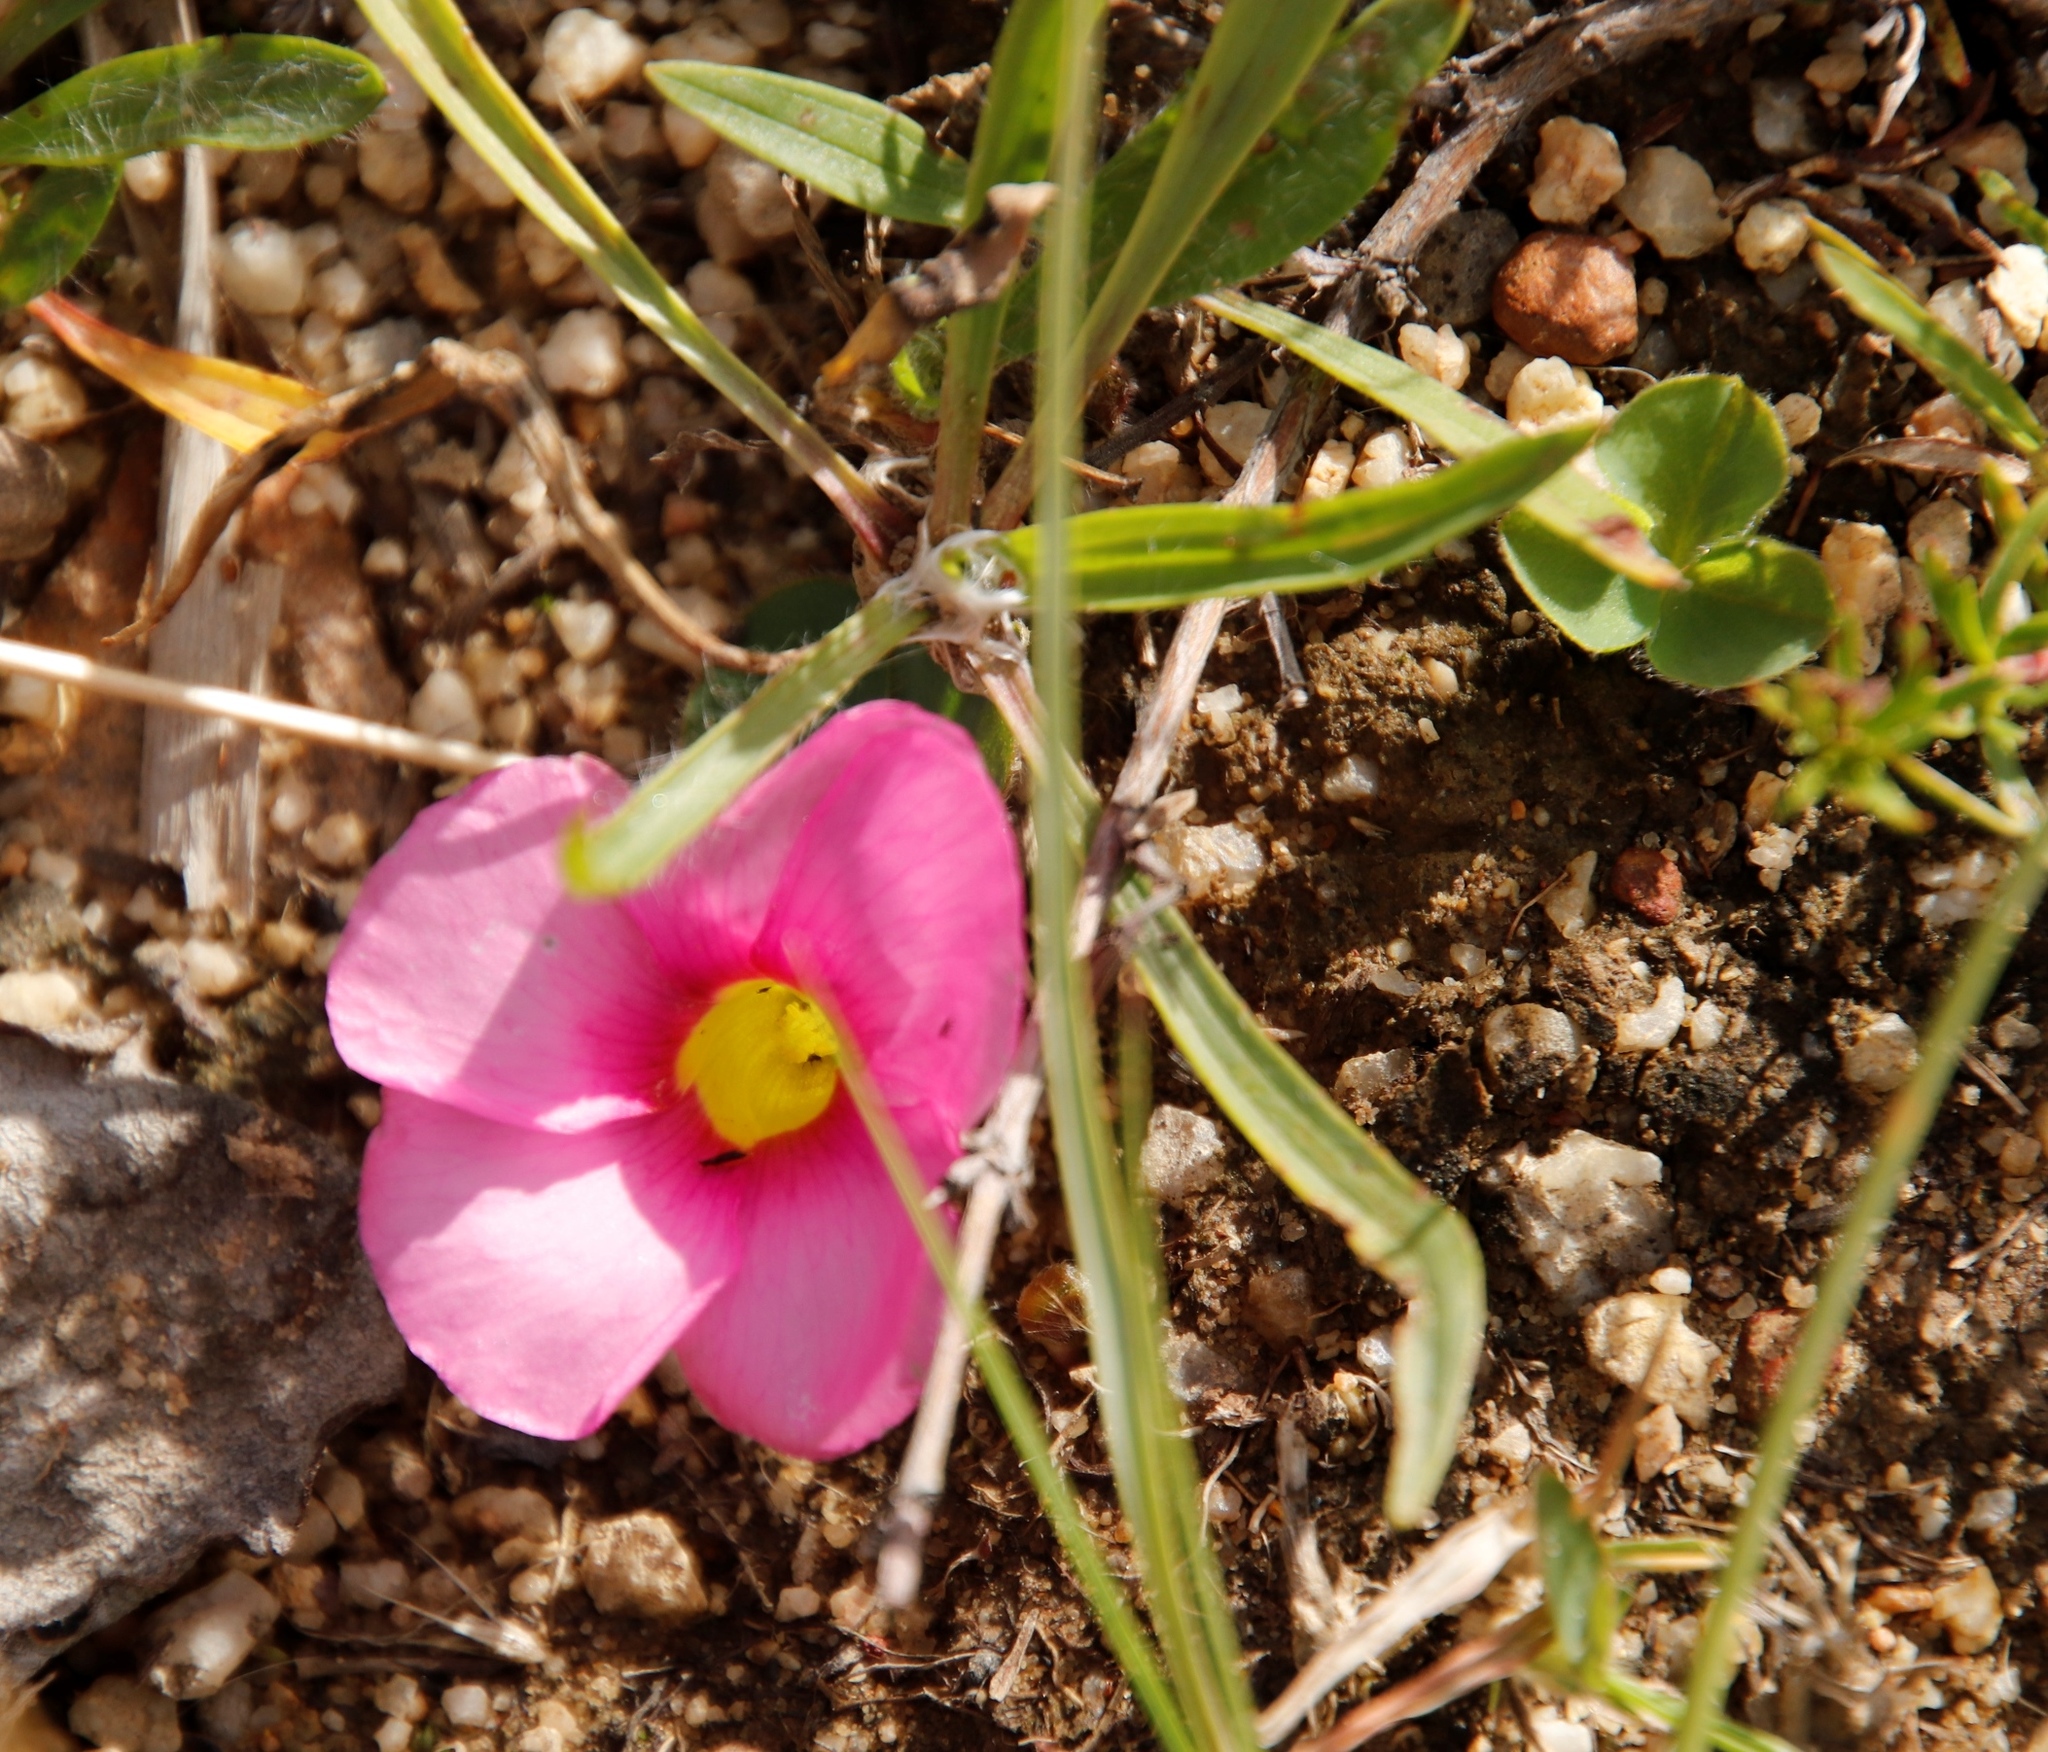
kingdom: Plantae
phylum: Tracheophyta
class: Magnoliopsida
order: Oxalidales
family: Oxalidaceae
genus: Oxalis
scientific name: Oxalis purpurea
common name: Purple woodsorrel
